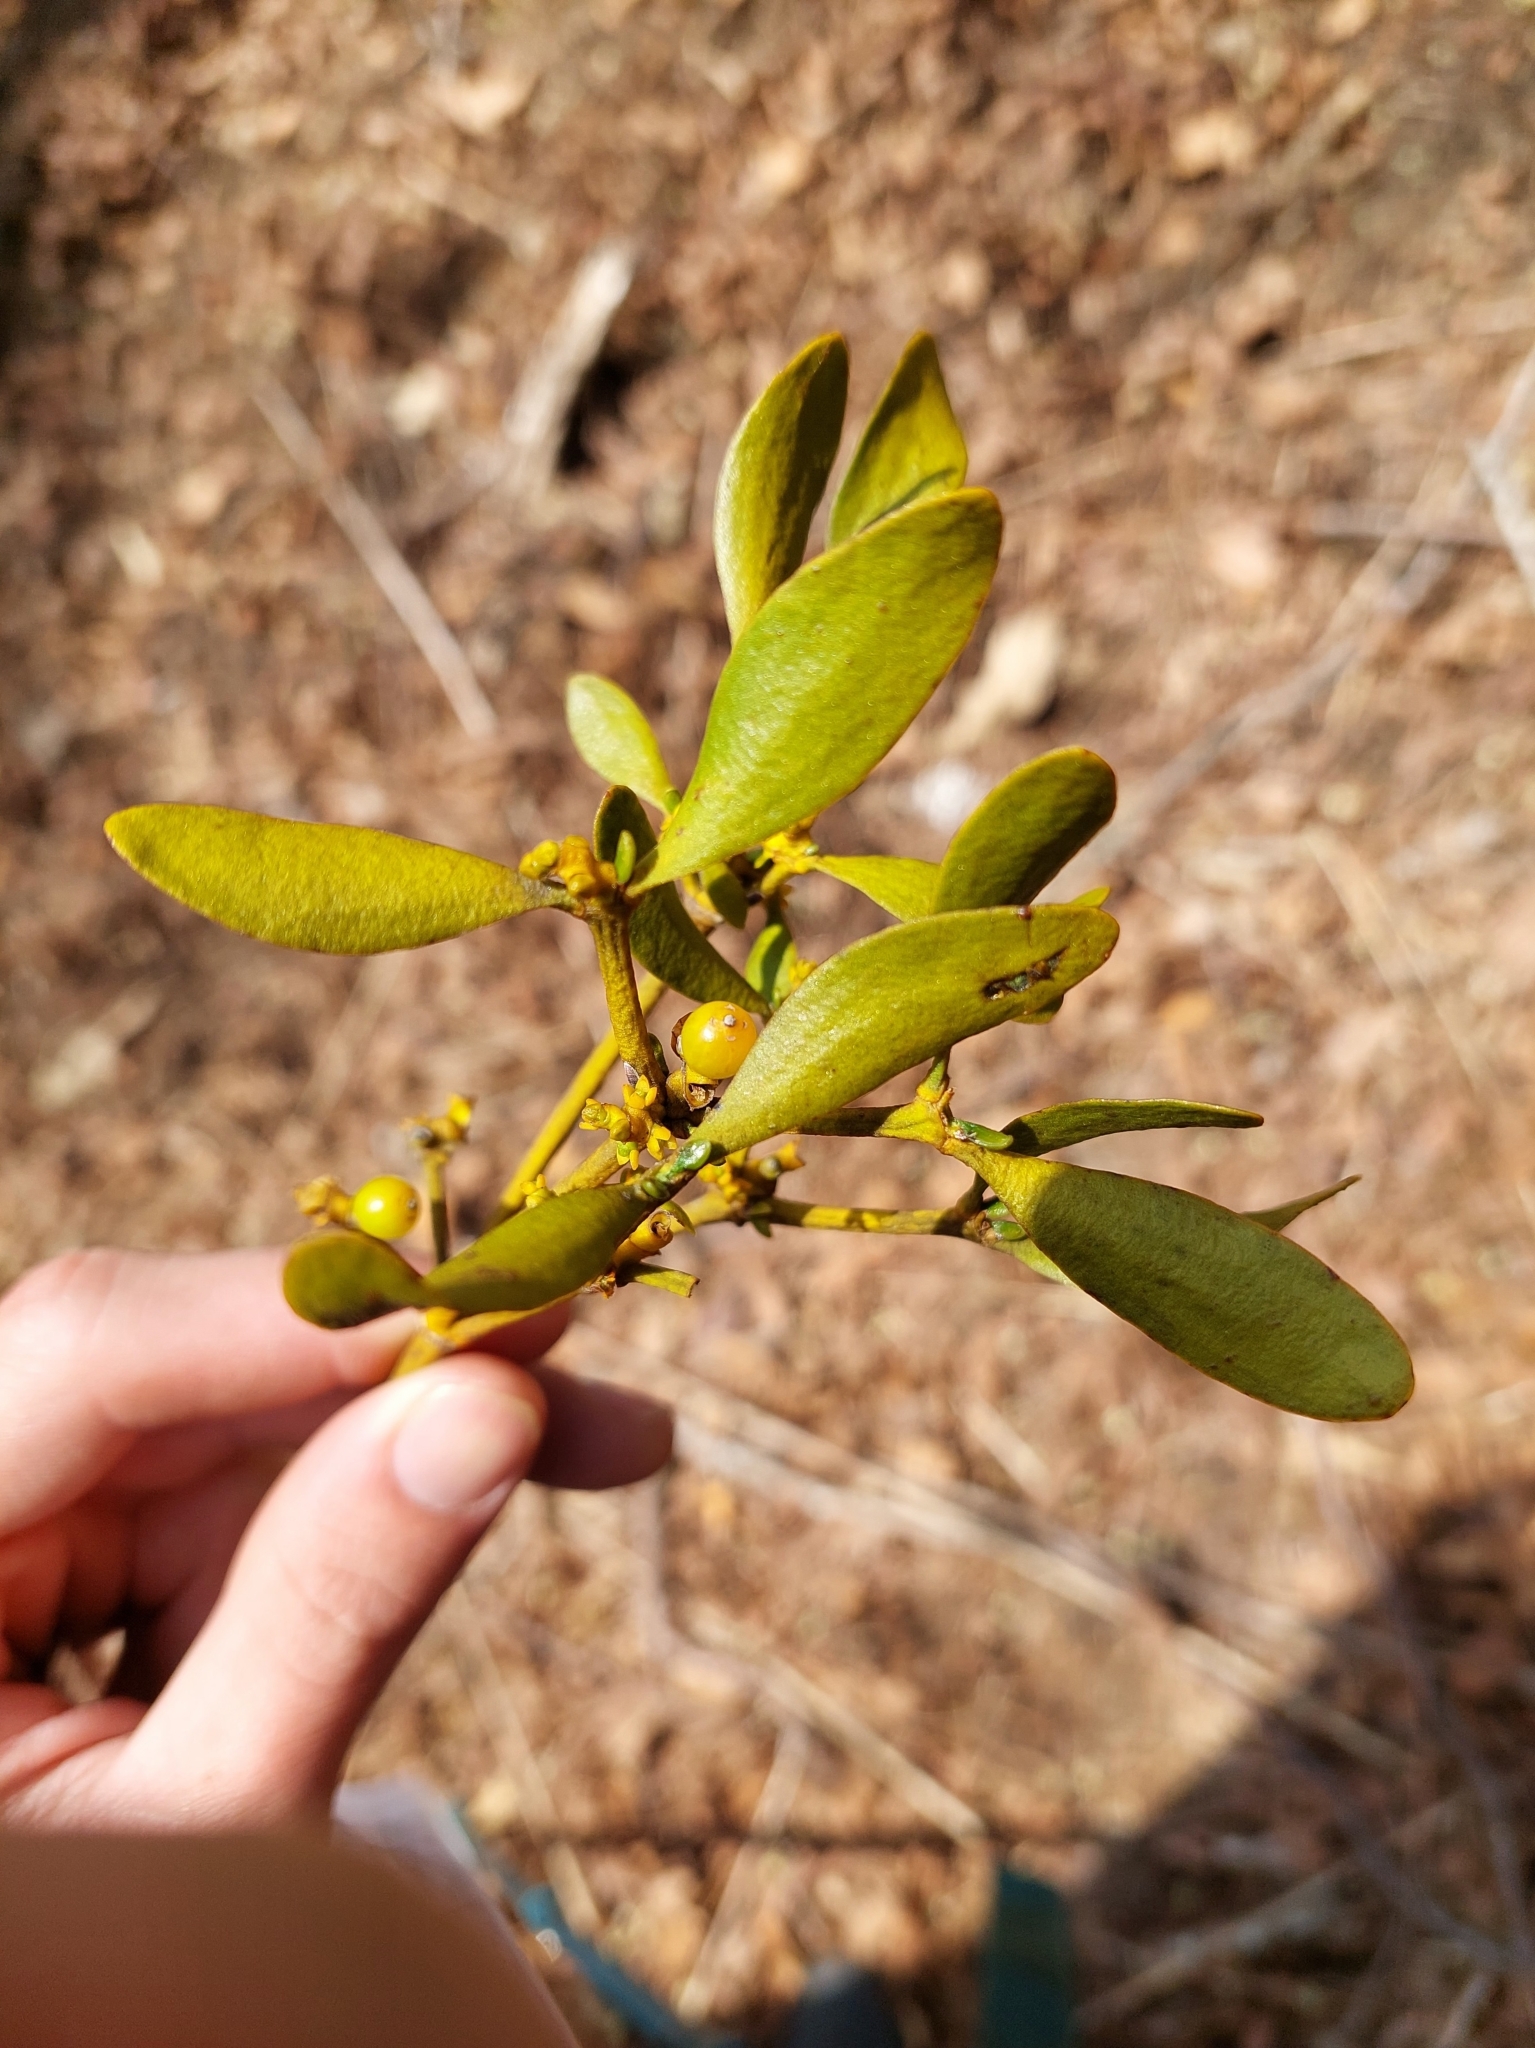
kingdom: Plantae
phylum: Tracheophyta
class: Magnoliopsida
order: Santalales
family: Viscaceae
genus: Viscum
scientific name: Viscum coloratum
